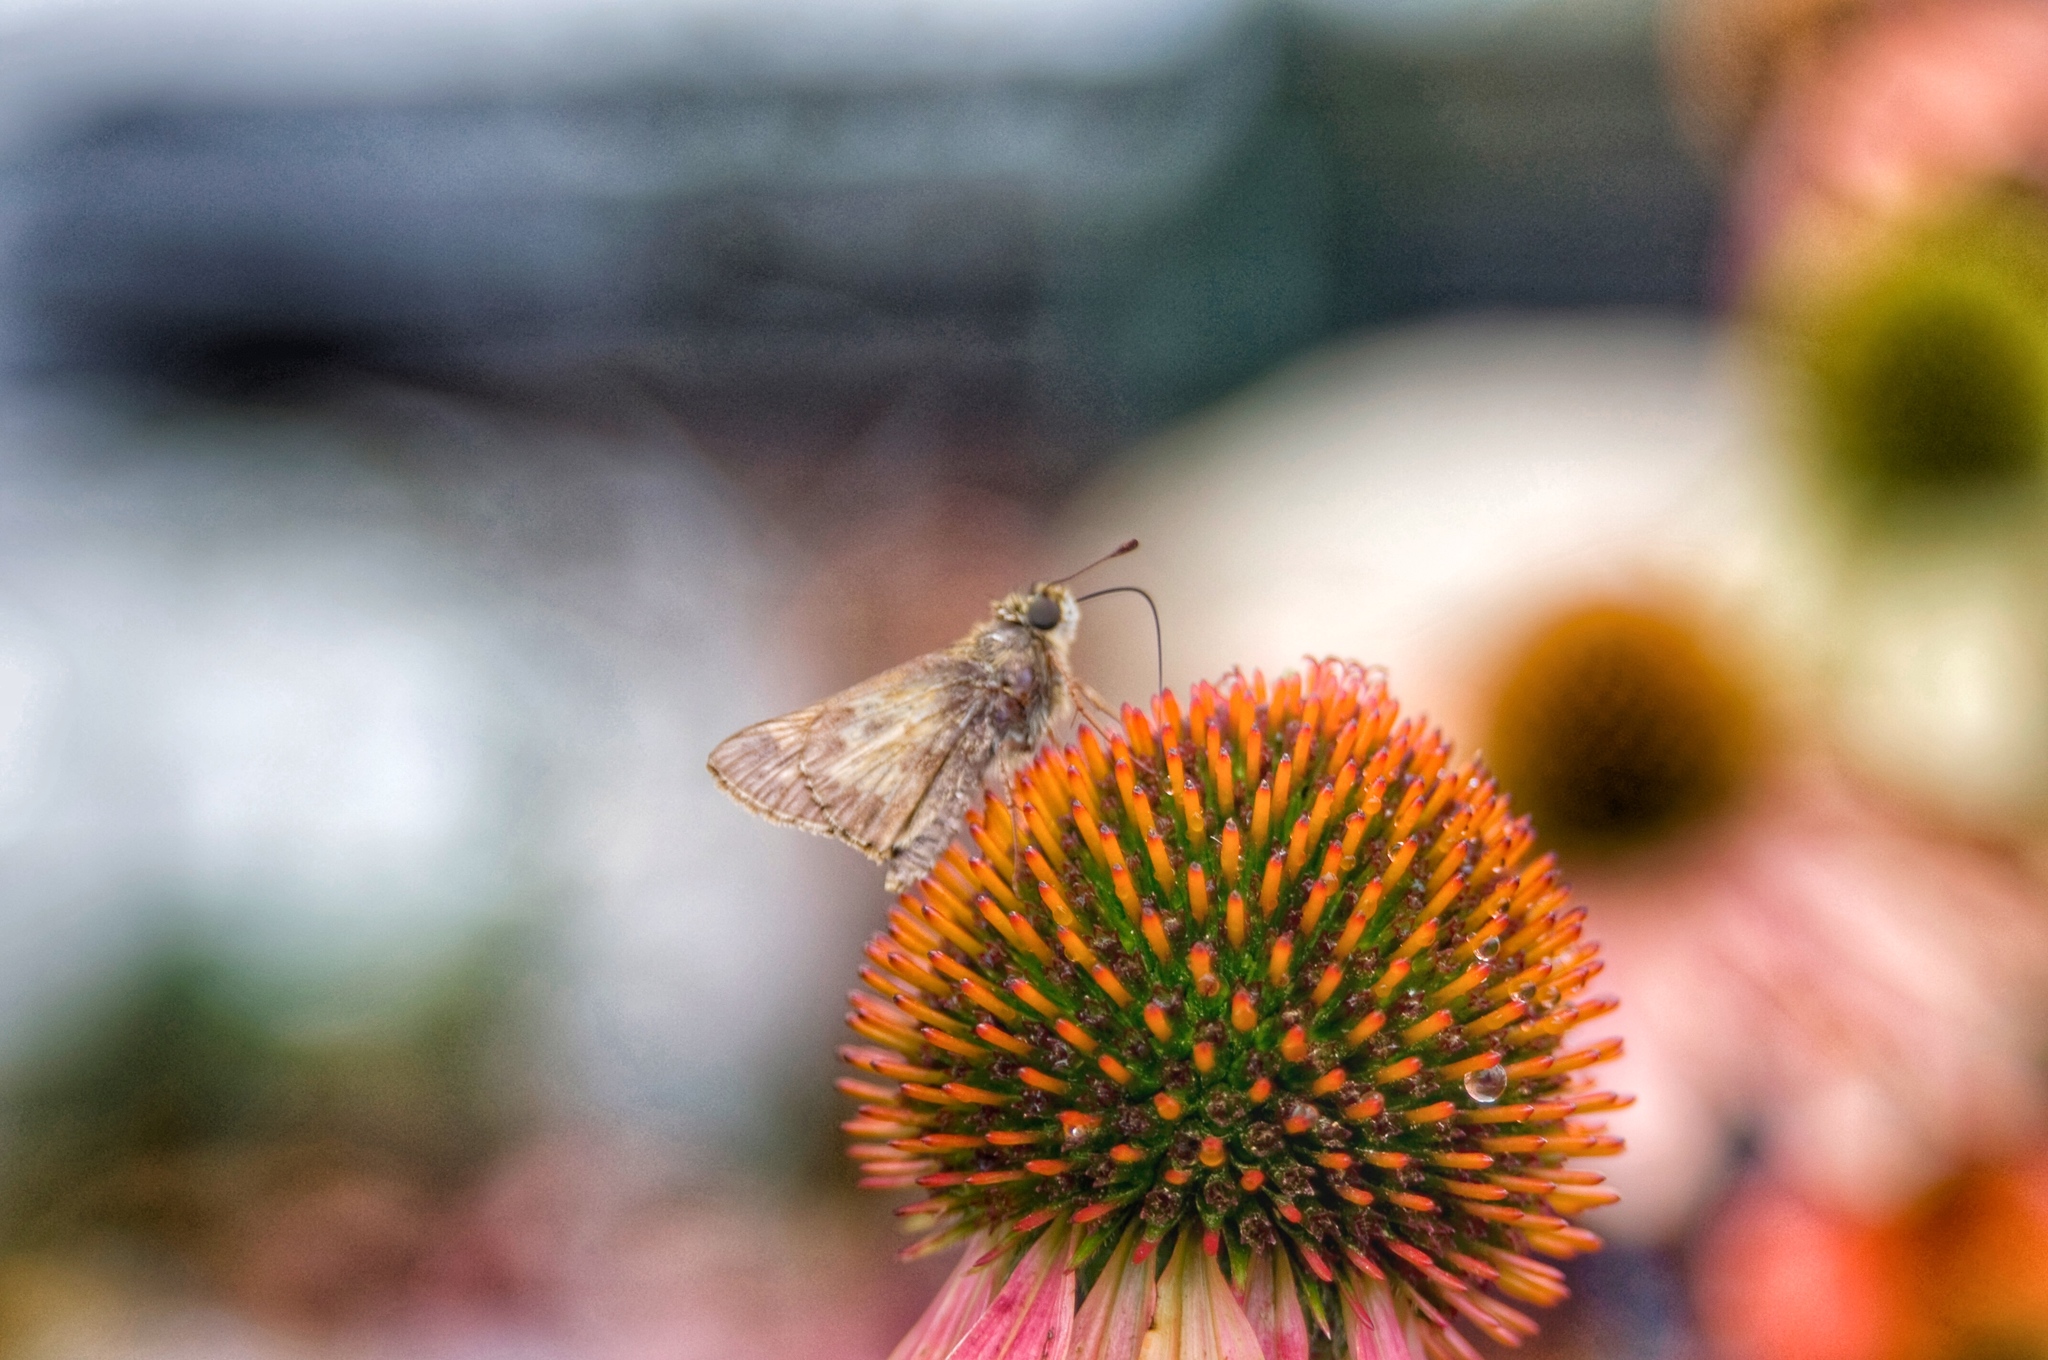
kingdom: Animalia
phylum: Arthropoda
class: Insecta
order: Lepidoptera
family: Hesperiidae
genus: Atalopedes
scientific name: Atalopedes
